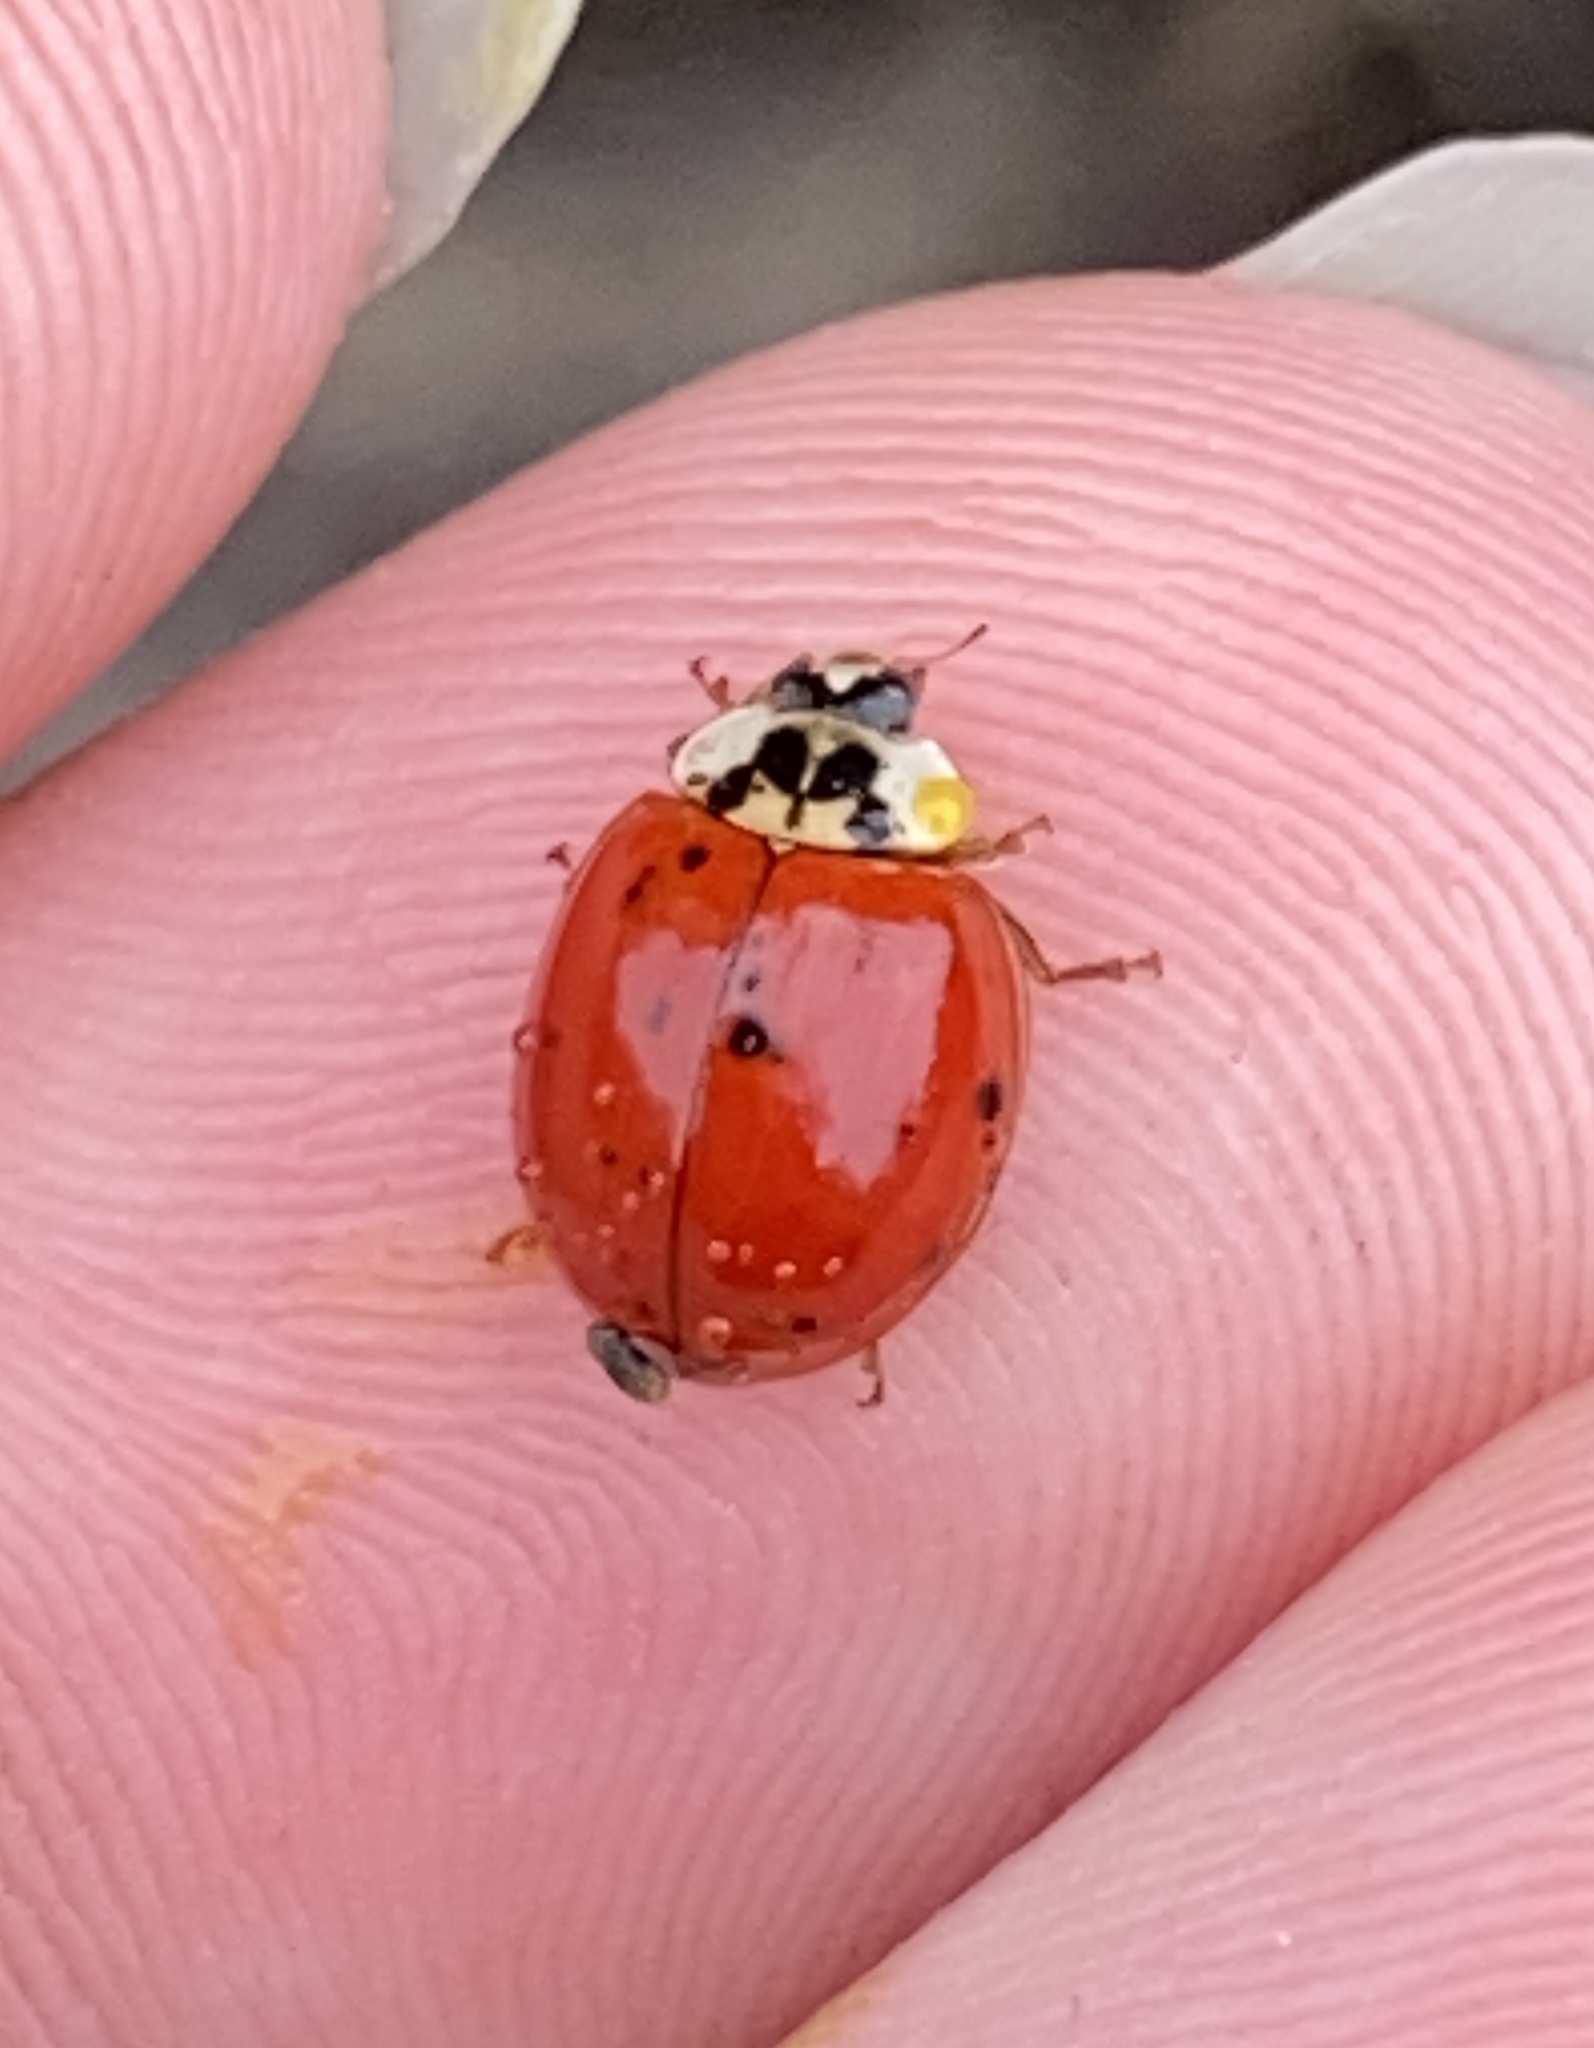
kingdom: Animalia
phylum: Arthropoda
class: Insecta
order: Coleoptera
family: Coccinellidae
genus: Harmonia
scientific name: Harmonia axyridis
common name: Harlequin ladybird
